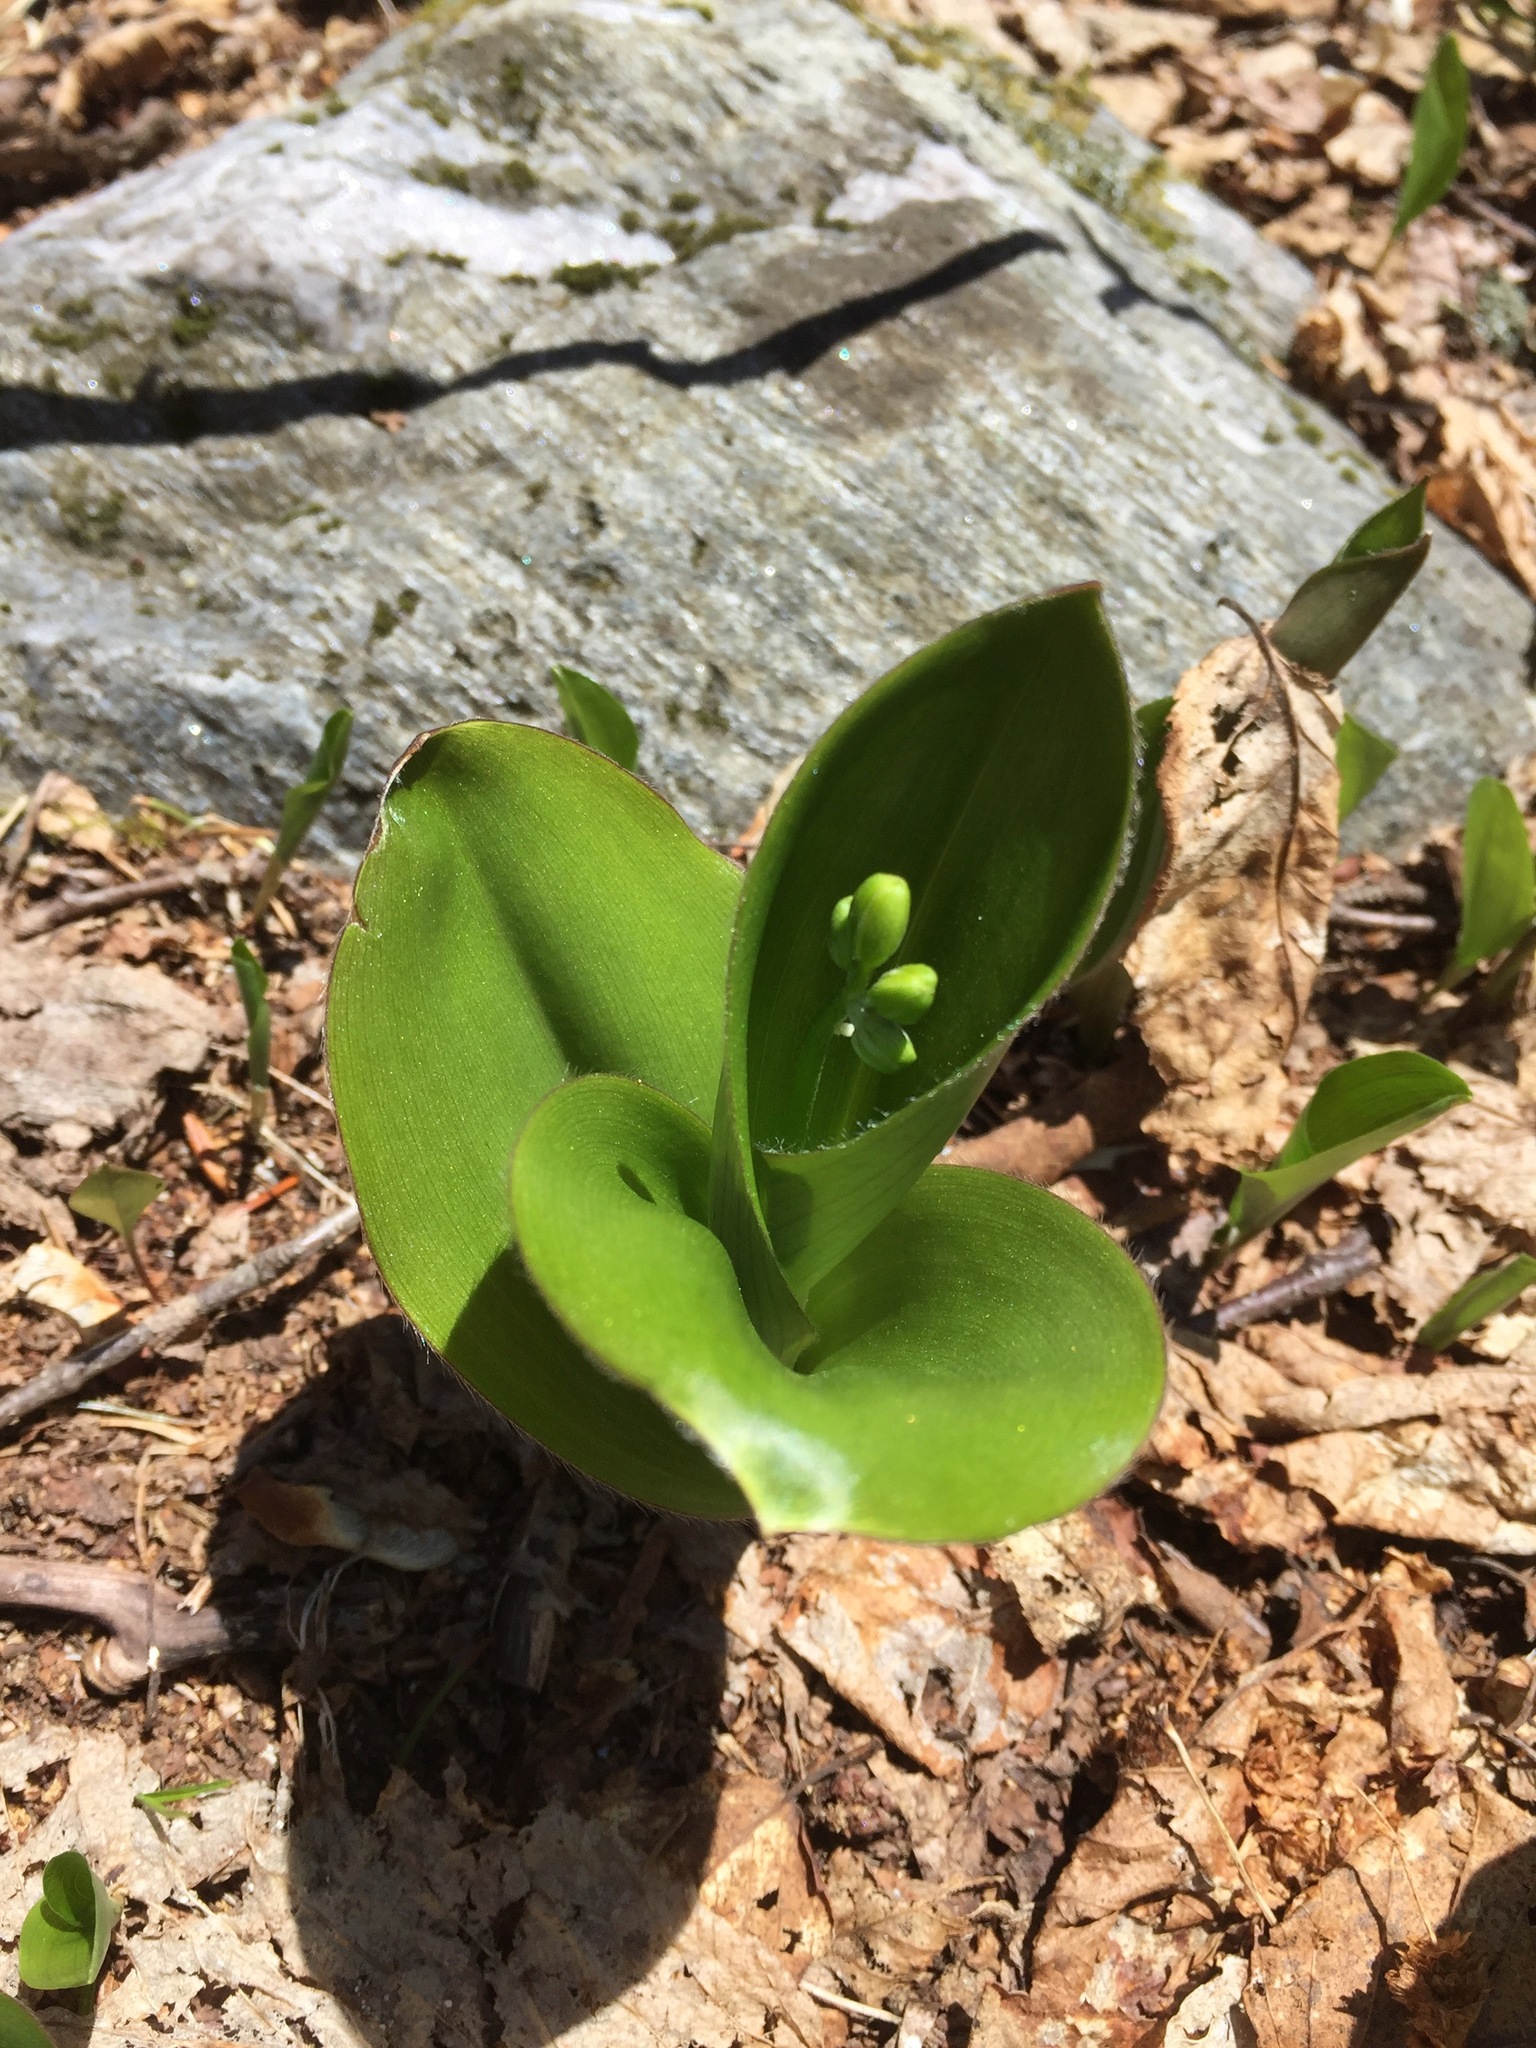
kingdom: Plantae
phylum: Tracheophyta
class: Liliopsida
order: Liliales
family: Liliaceae
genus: Clintonia
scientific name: Clintonia borealis
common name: Yellow clintonia
